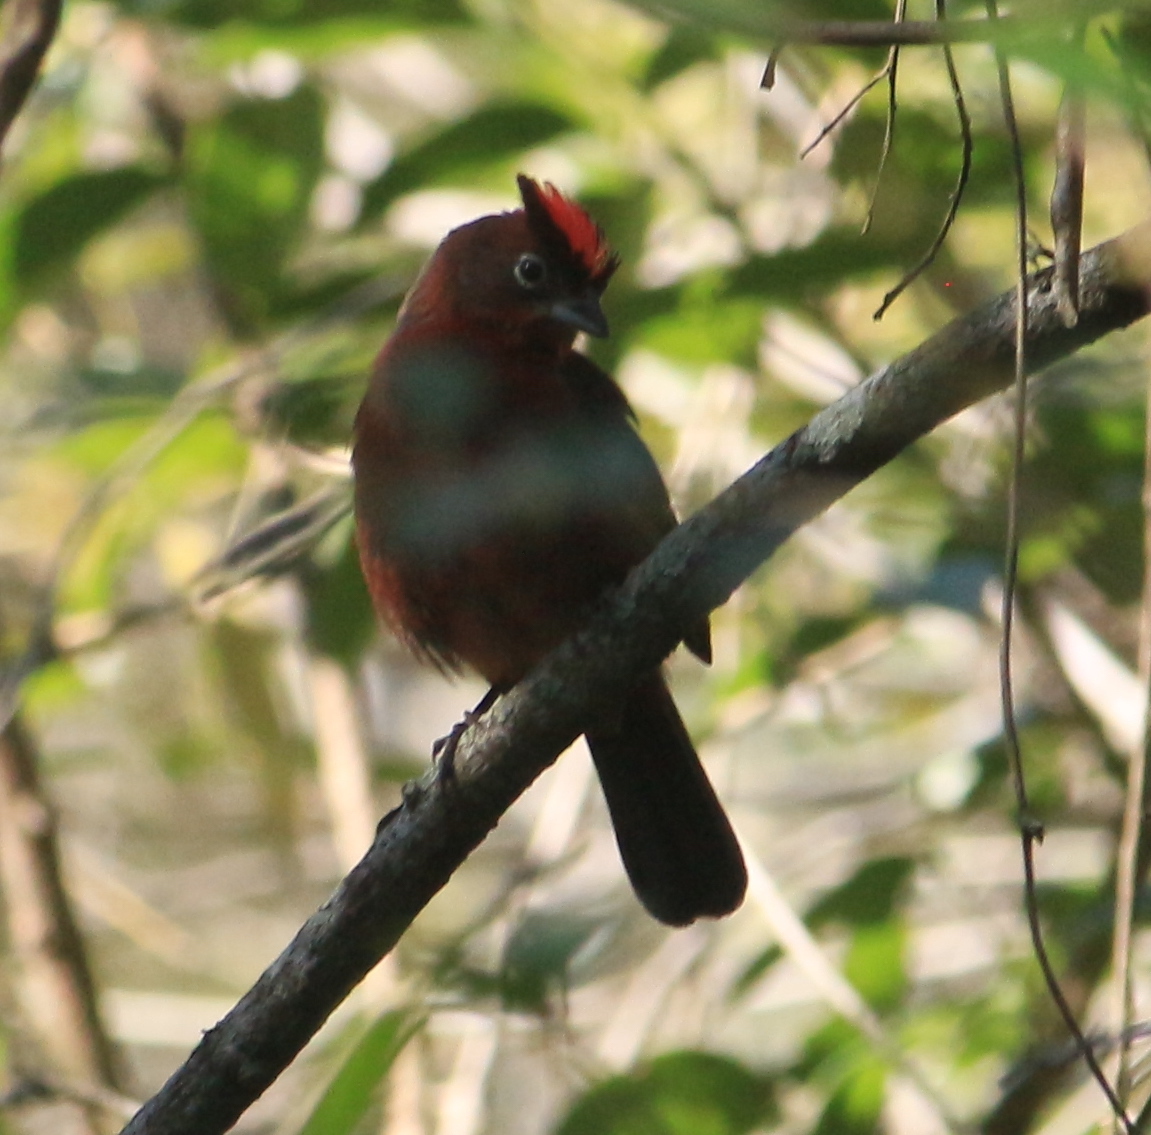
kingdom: Animalia
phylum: Chordata
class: Aves
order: Passeriformes
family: Thraupidae
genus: Coryphospingus
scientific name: Coryphospingus cucullatus
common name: Red pileated finch
